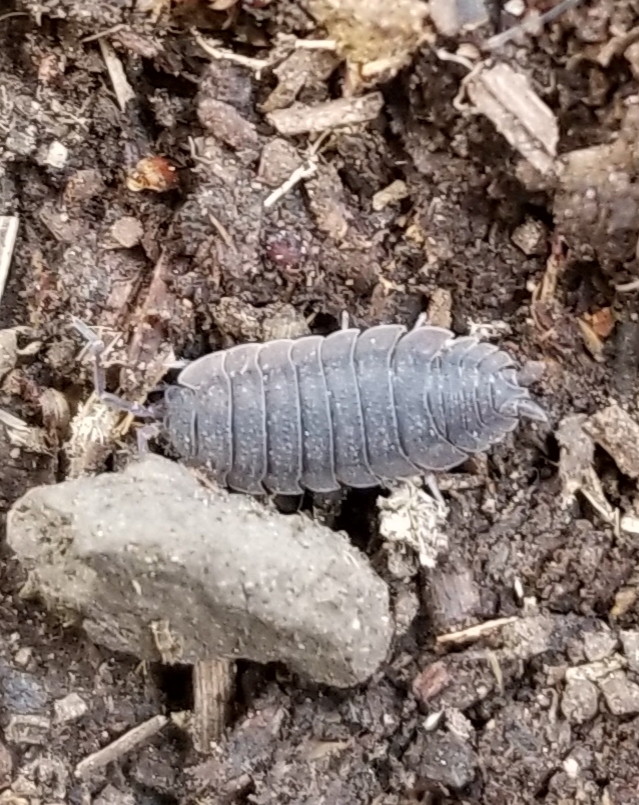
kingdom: Animalia
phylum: Arthropoda
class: Malacostraca
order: Isopoda
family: Porcellionidae
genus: Porcellio
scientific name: Porcellio scaber
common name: Common rough woodlouse
